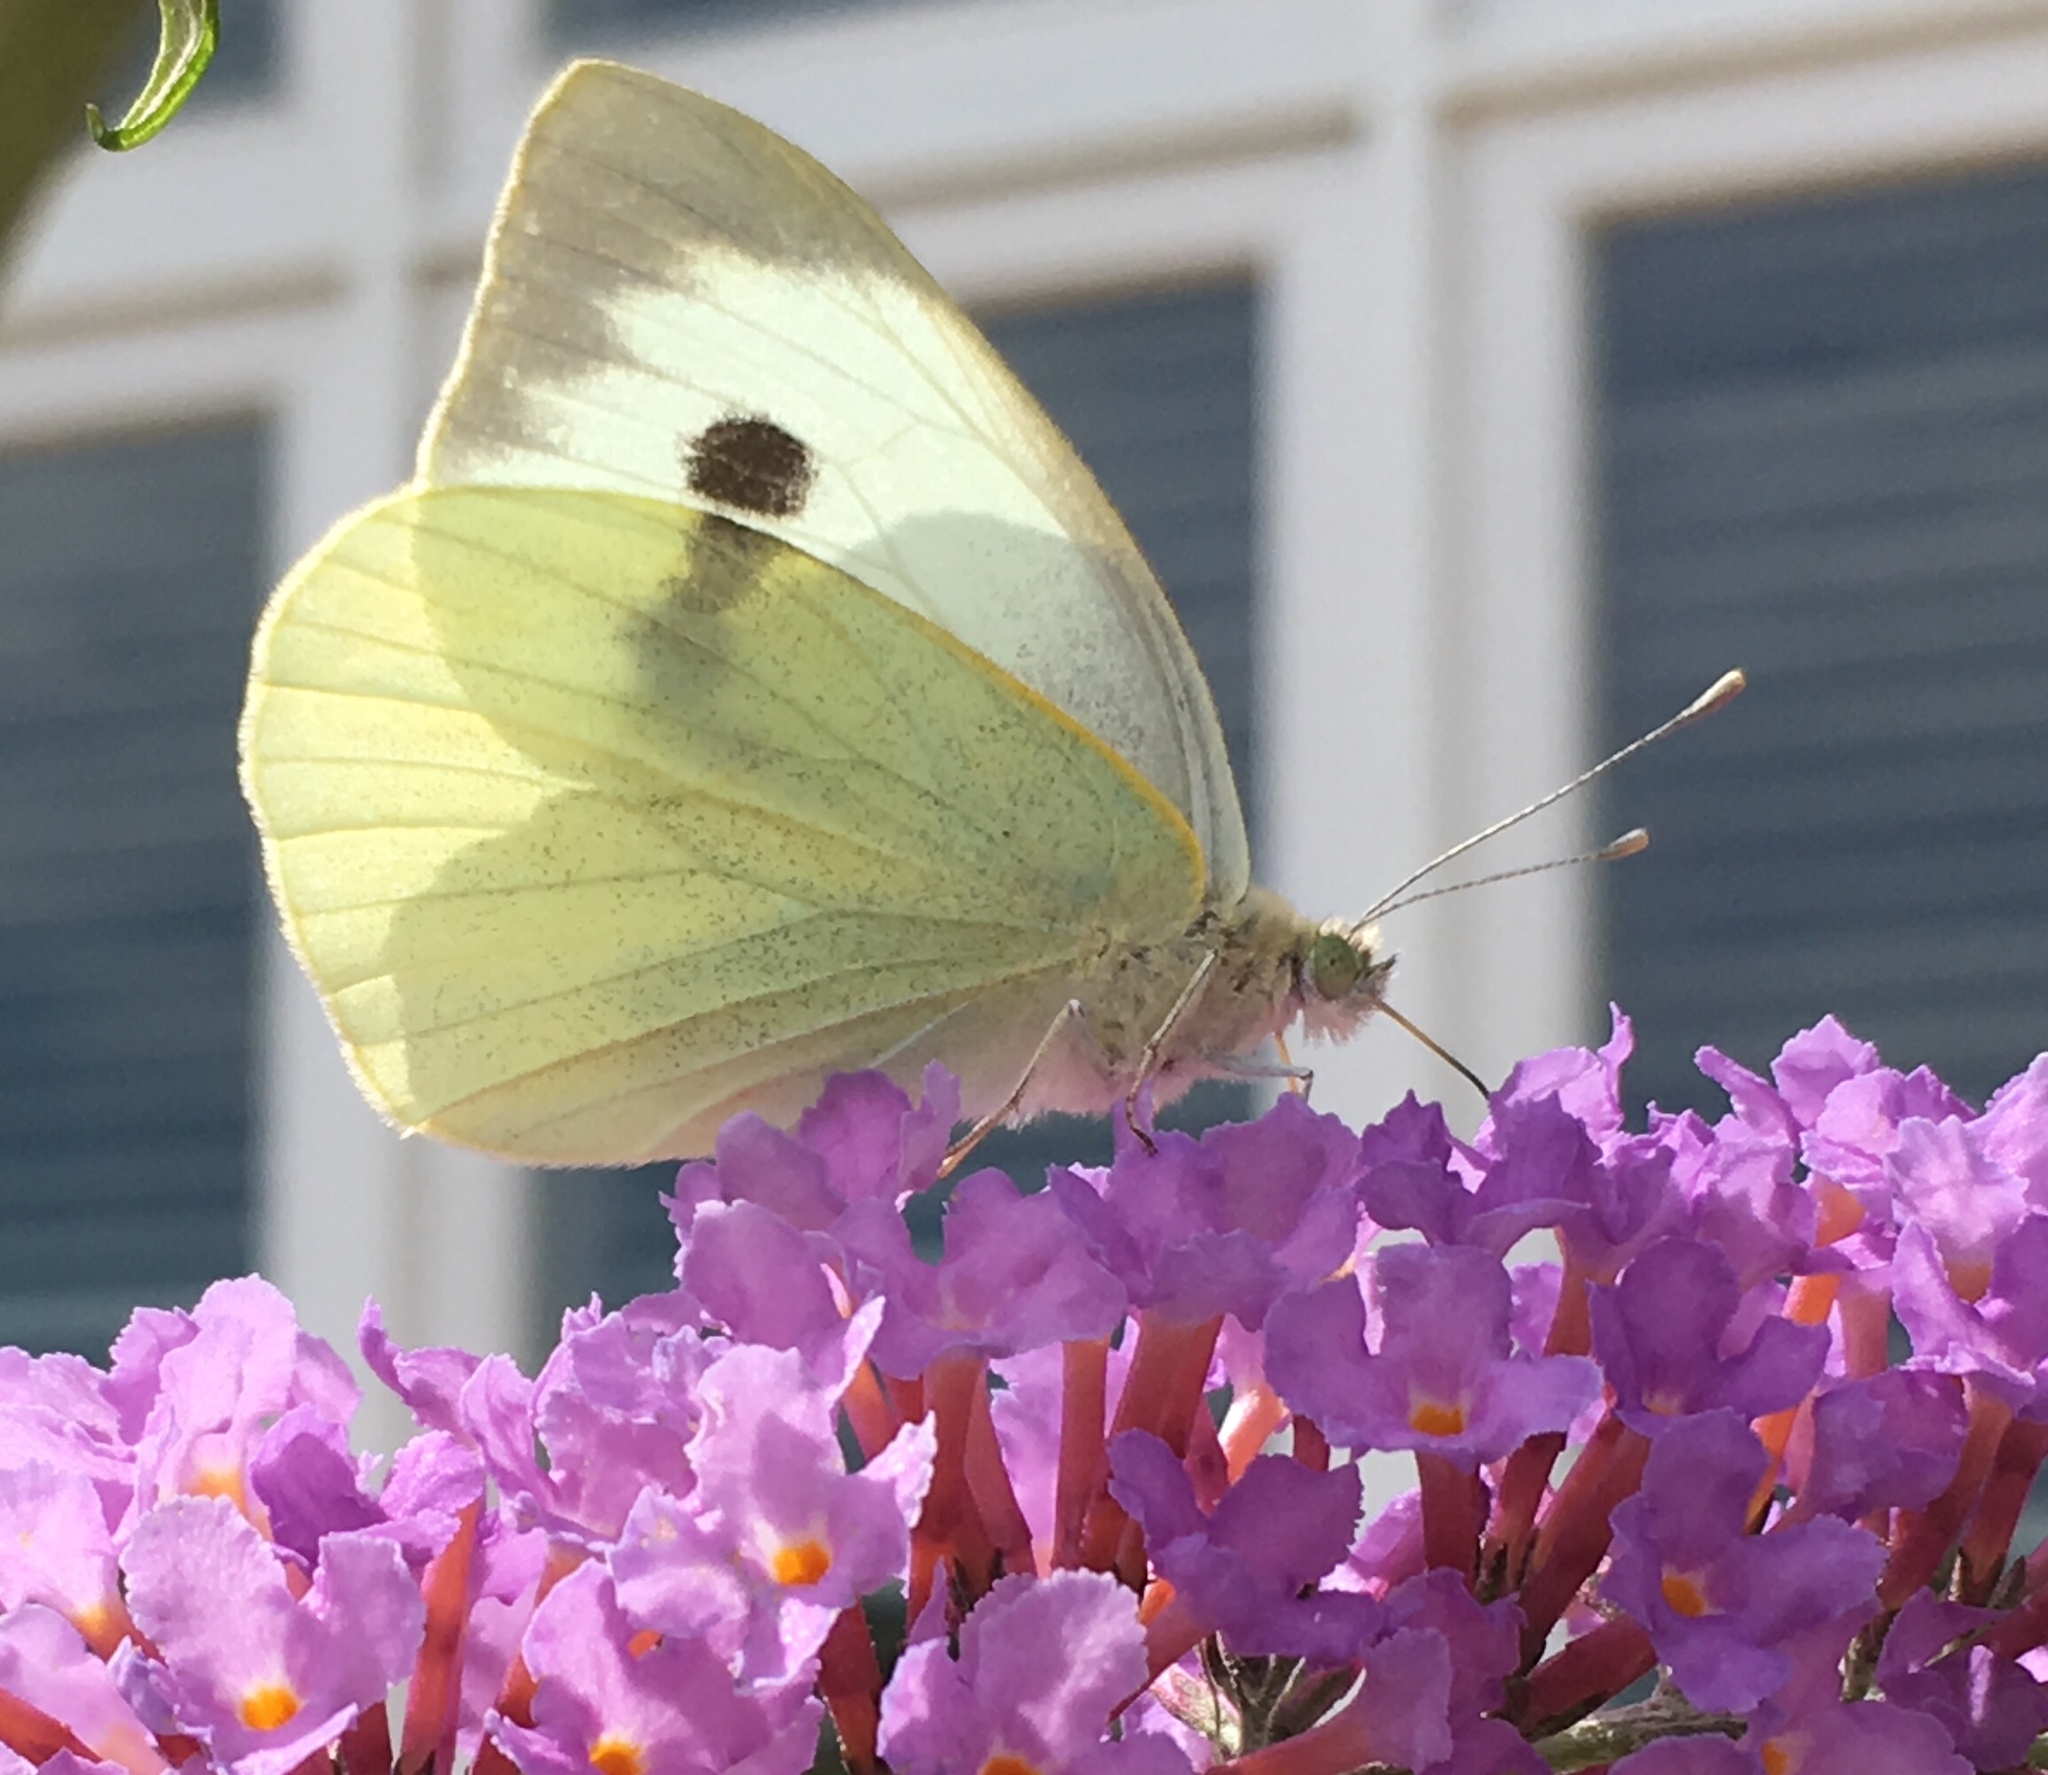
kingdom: Animalia
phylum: Arthropoda
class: Insecta
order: Lepidoptera
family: Pieridae
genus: Pieris
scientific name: Pieris brassicae
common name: Large white
